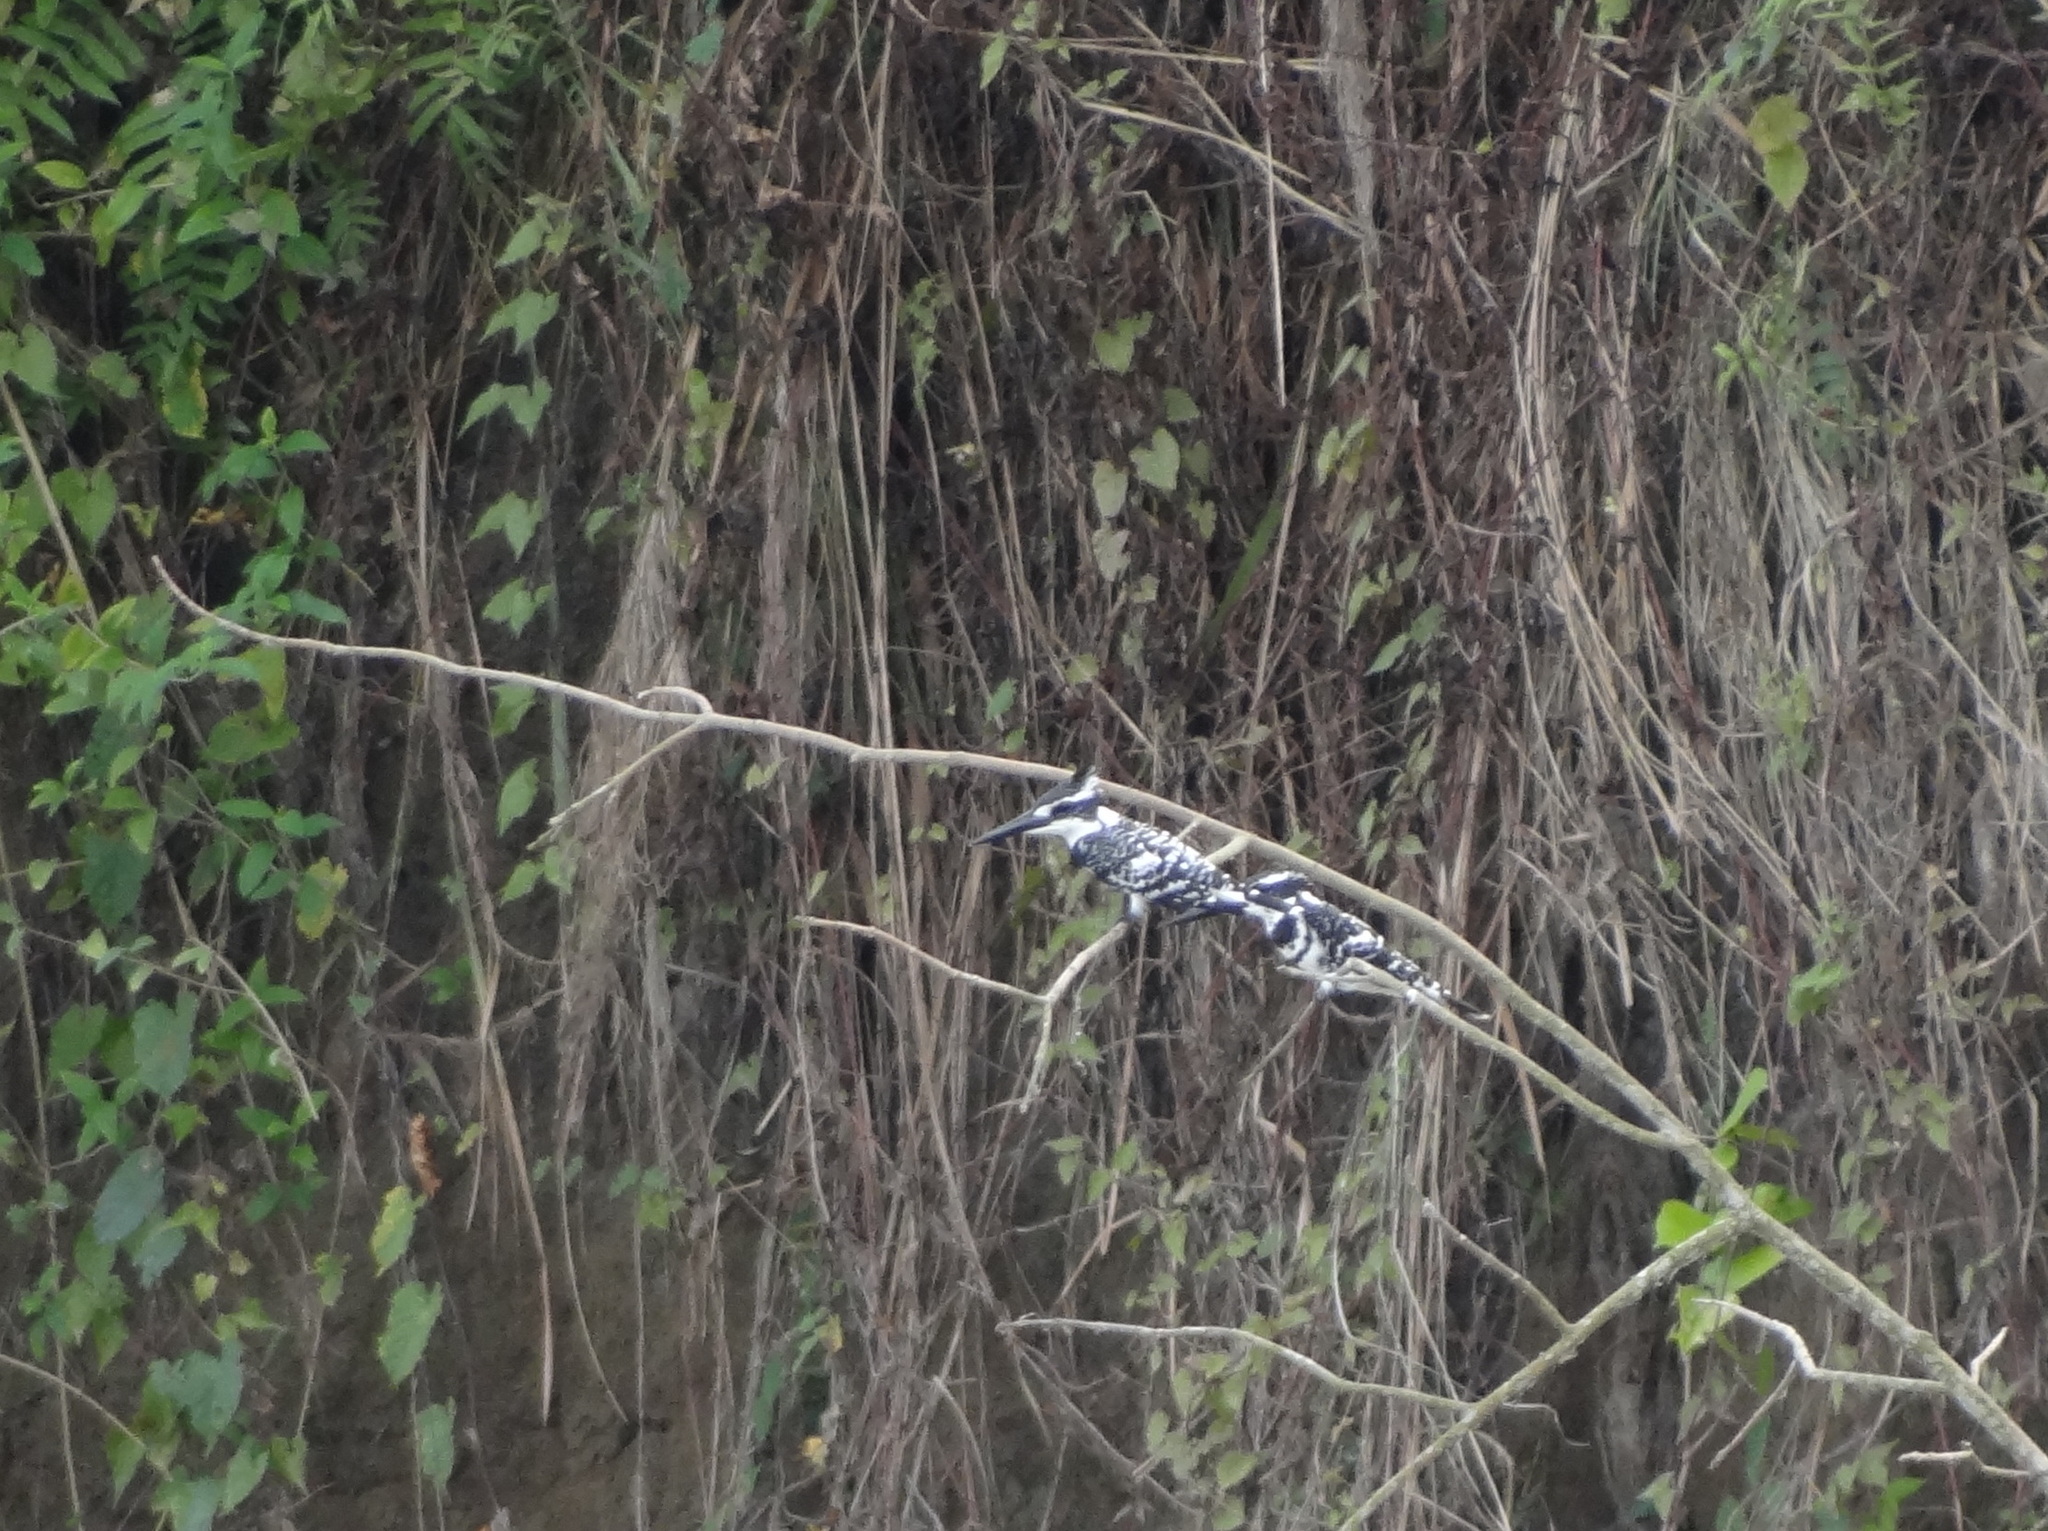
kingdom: Animalia
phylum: Chordata
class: Aves
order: Coraciiformes
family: Alcedinidae
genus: Ceryle
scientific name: Ceryle rudis
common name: Pied kingfisher
